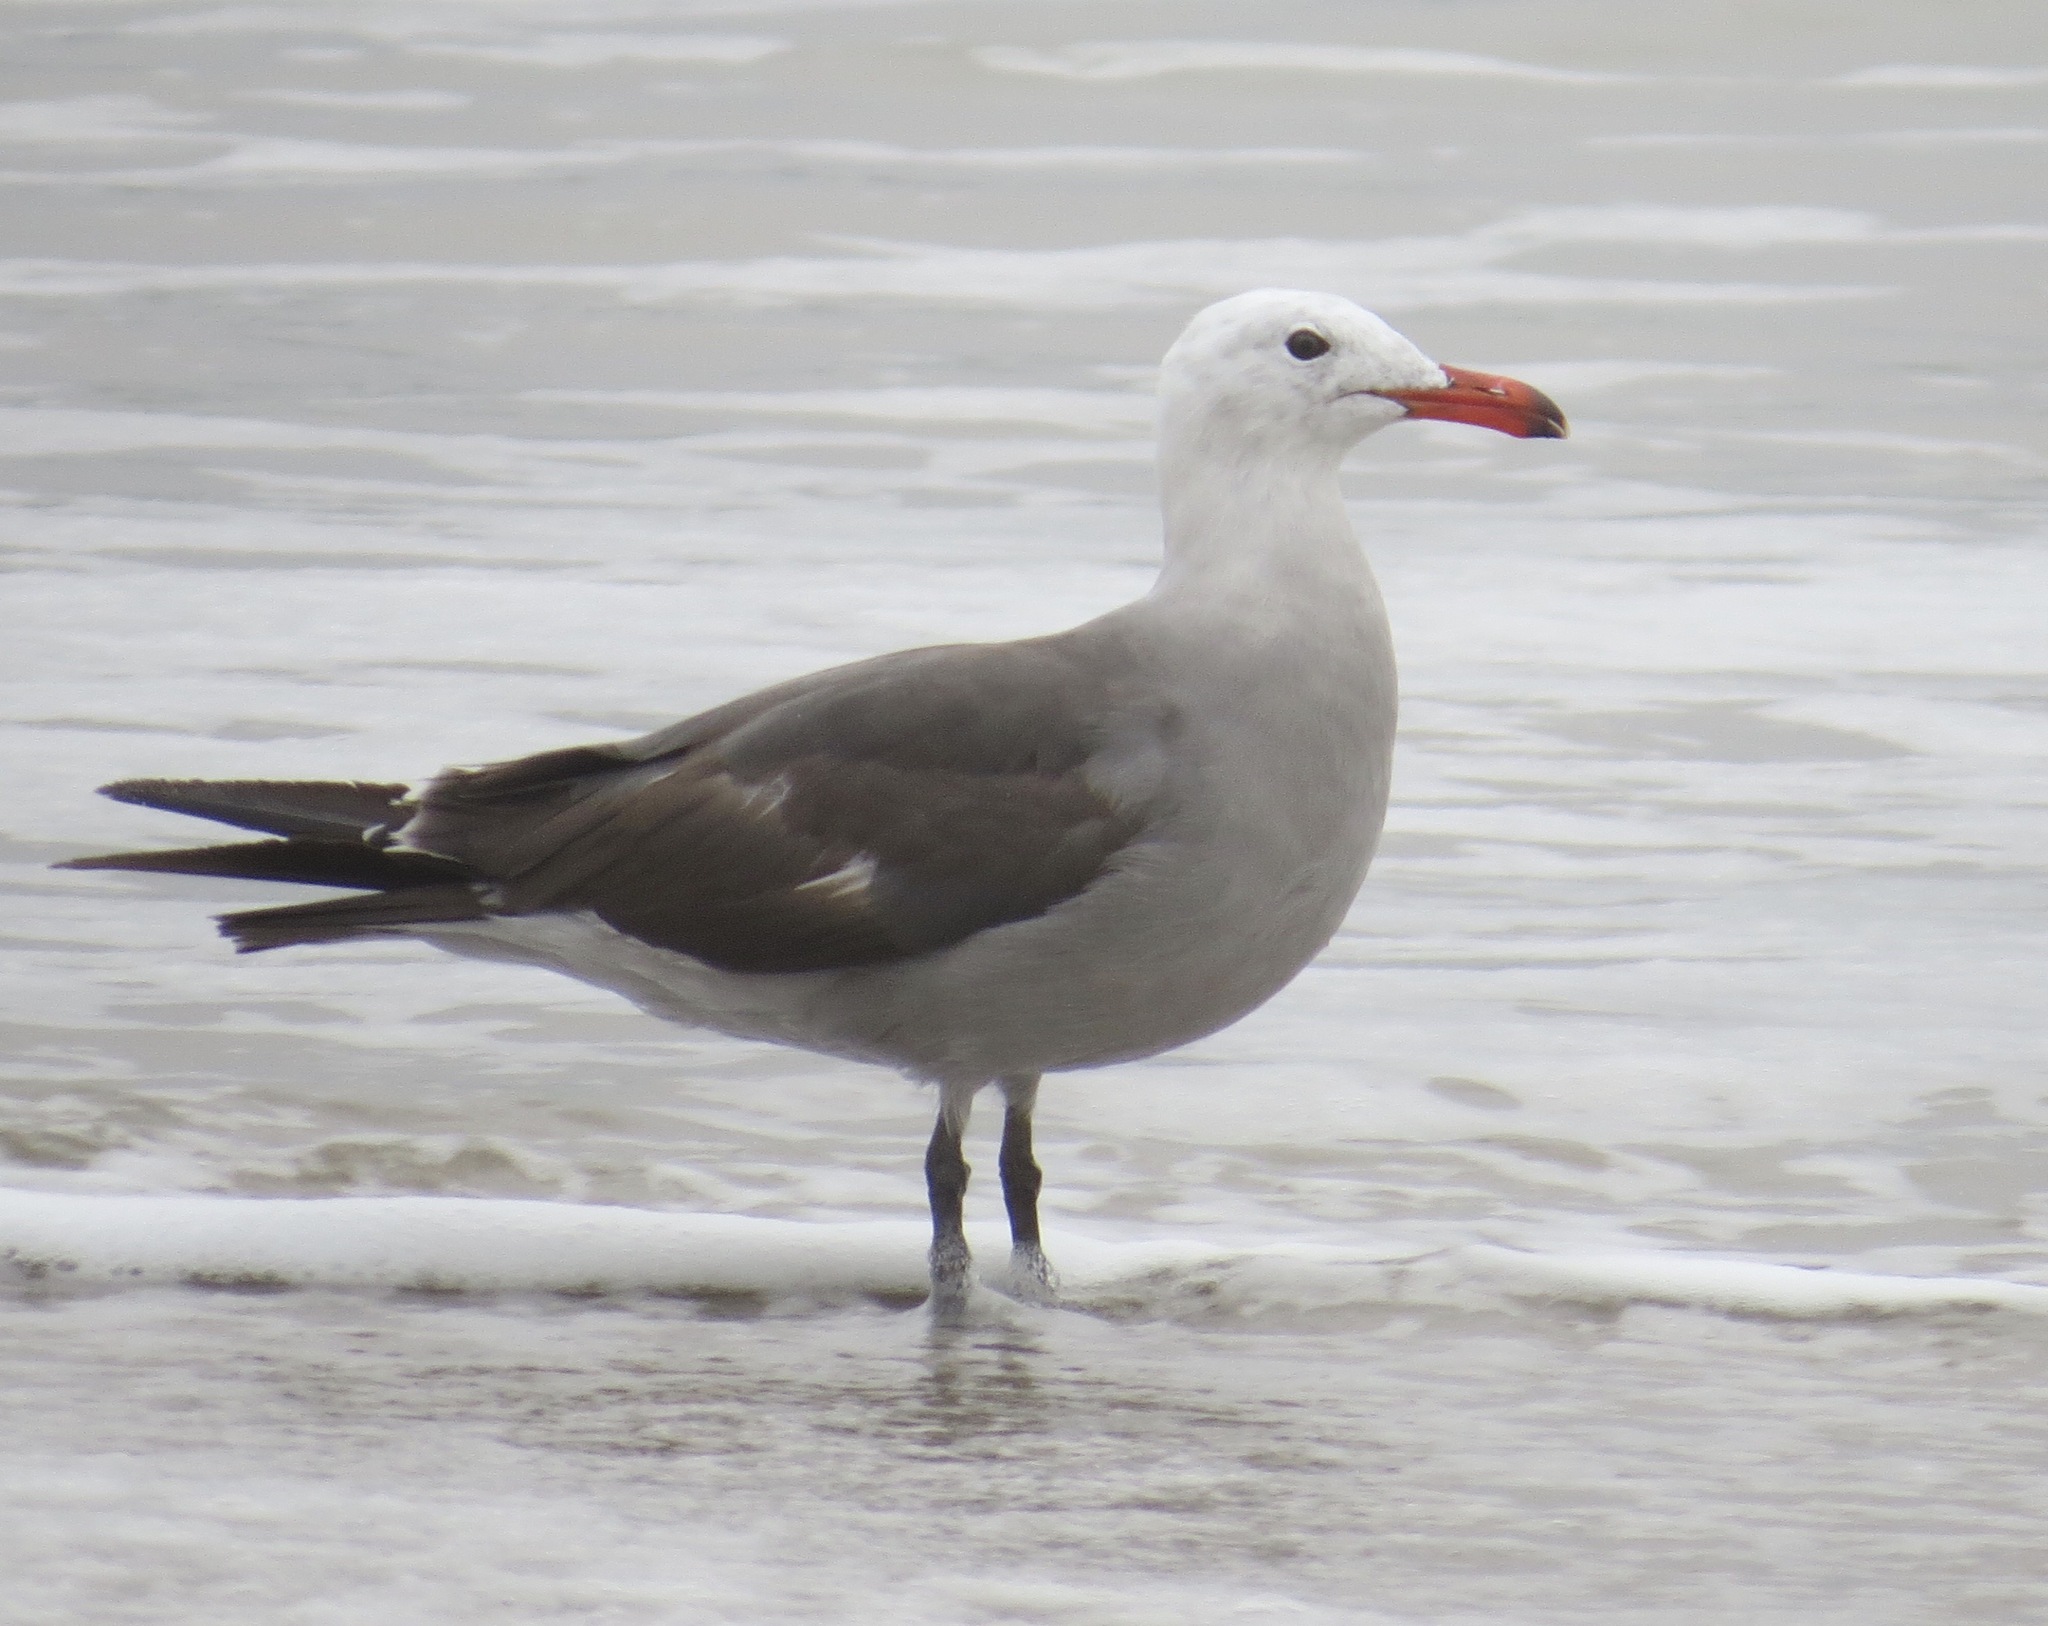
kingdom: Animalia
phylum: Chordata
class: Aves
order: Charadriiformes
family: Laridae
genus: Larus
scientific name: Larus heermanni
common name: Heermann's gull
